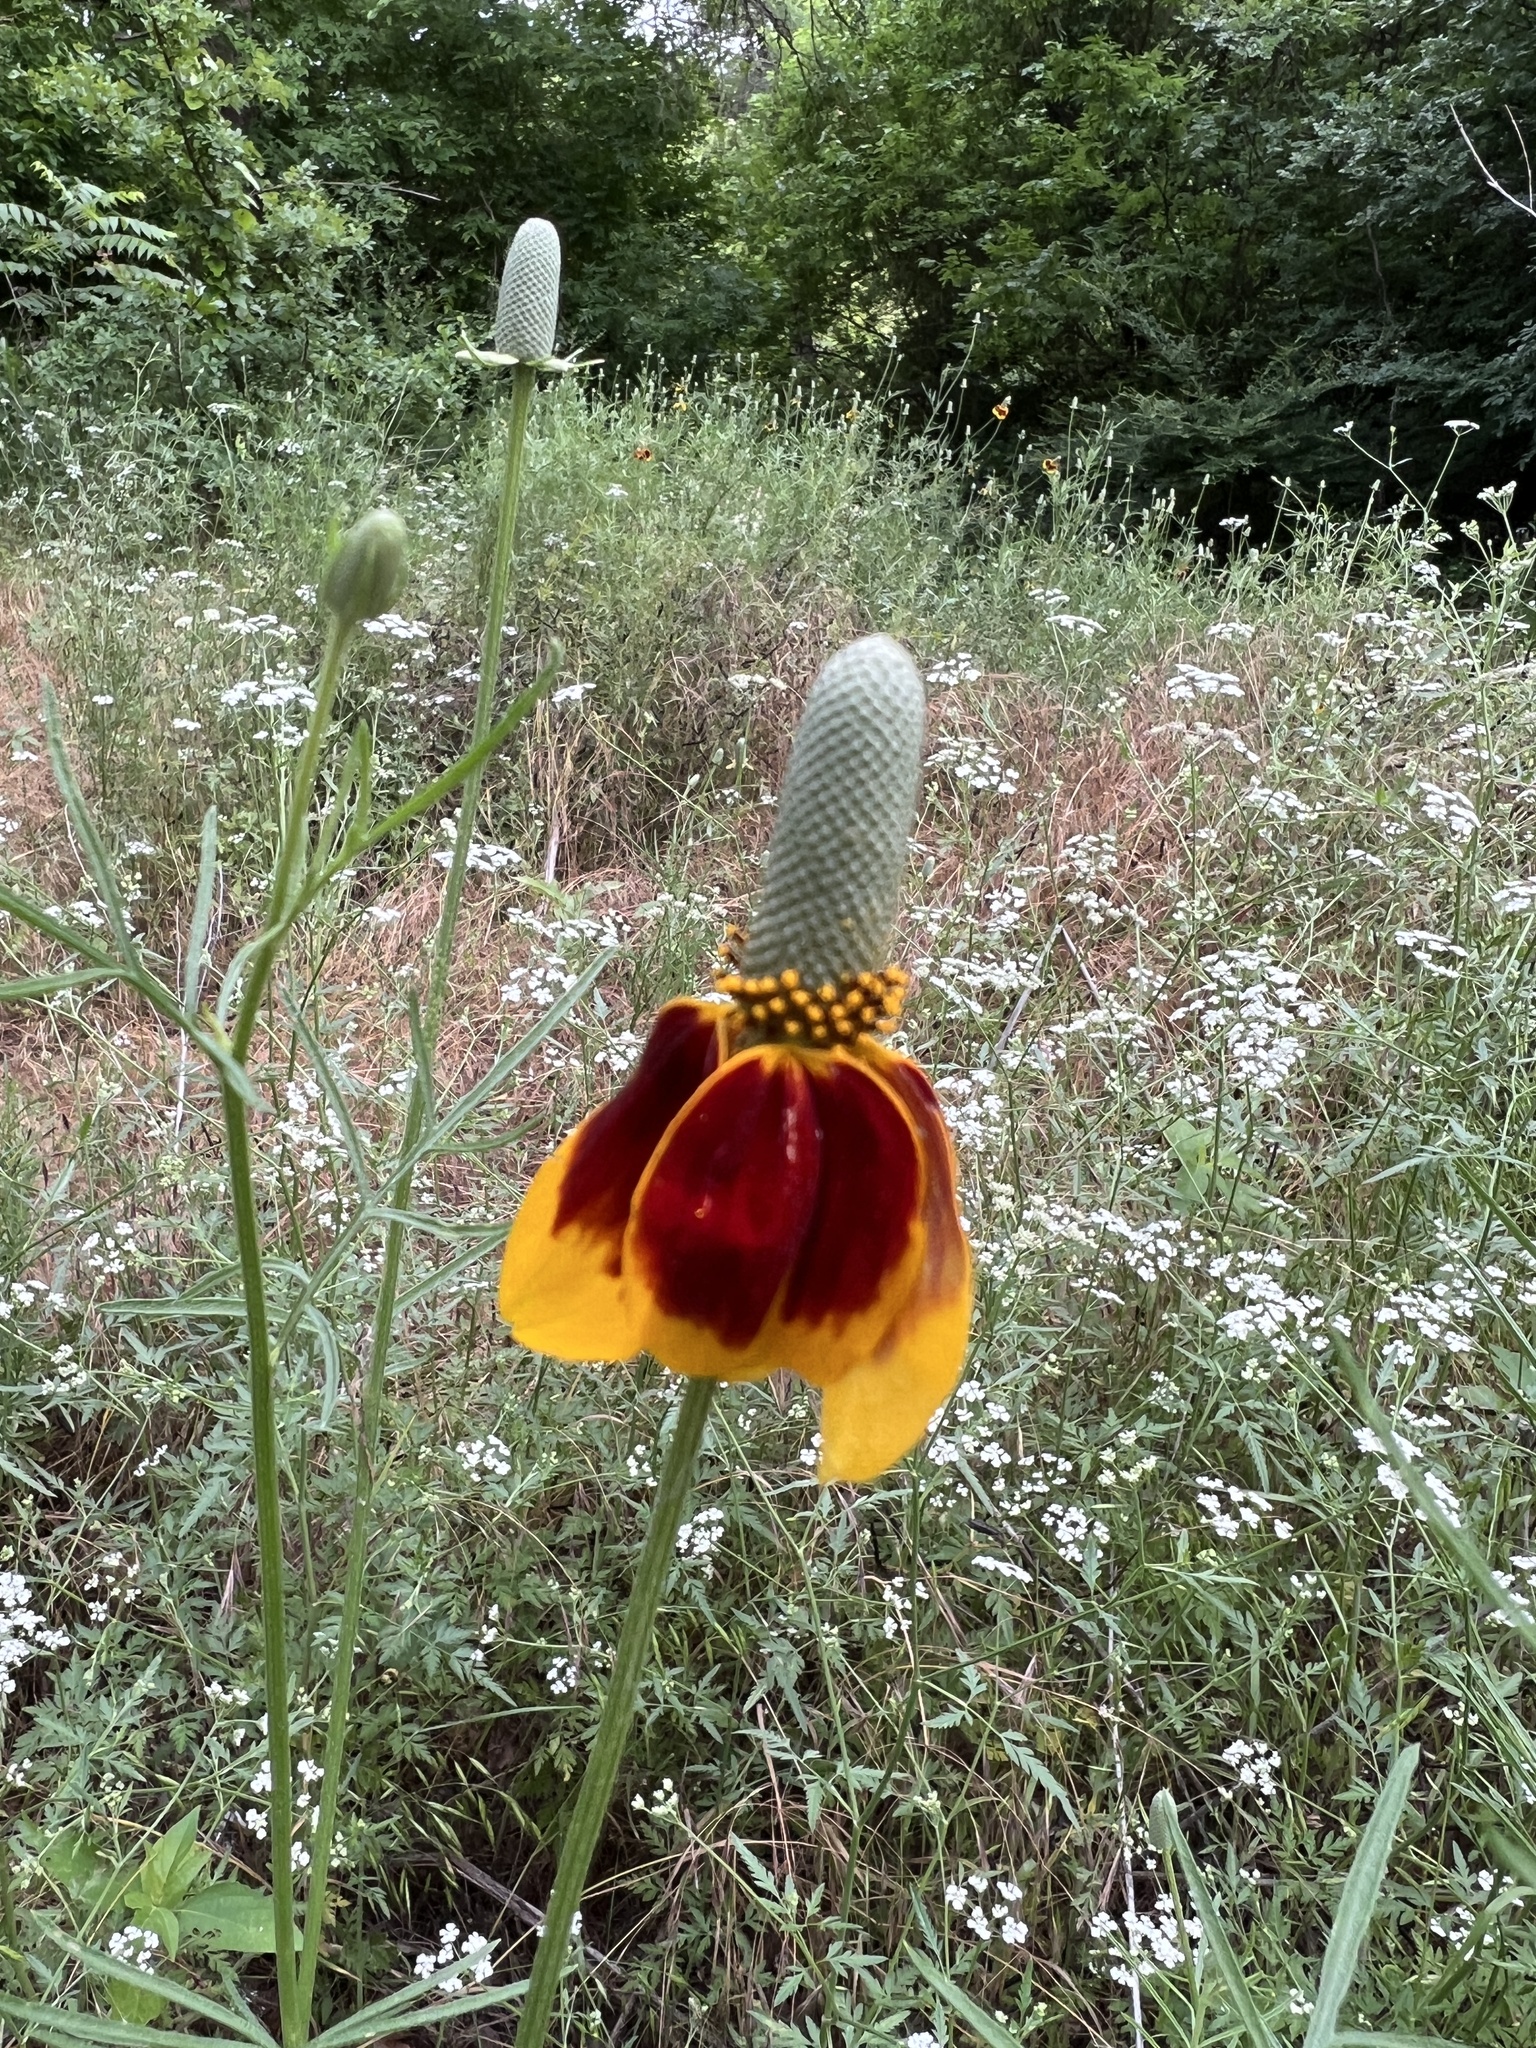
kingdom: Plantae
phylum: Tracheophyta
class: Magnoliopsida
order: Asterales
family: Asteraceae
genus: Ratibida
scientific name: Ratibida columnifera
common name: Prairie coneflower
